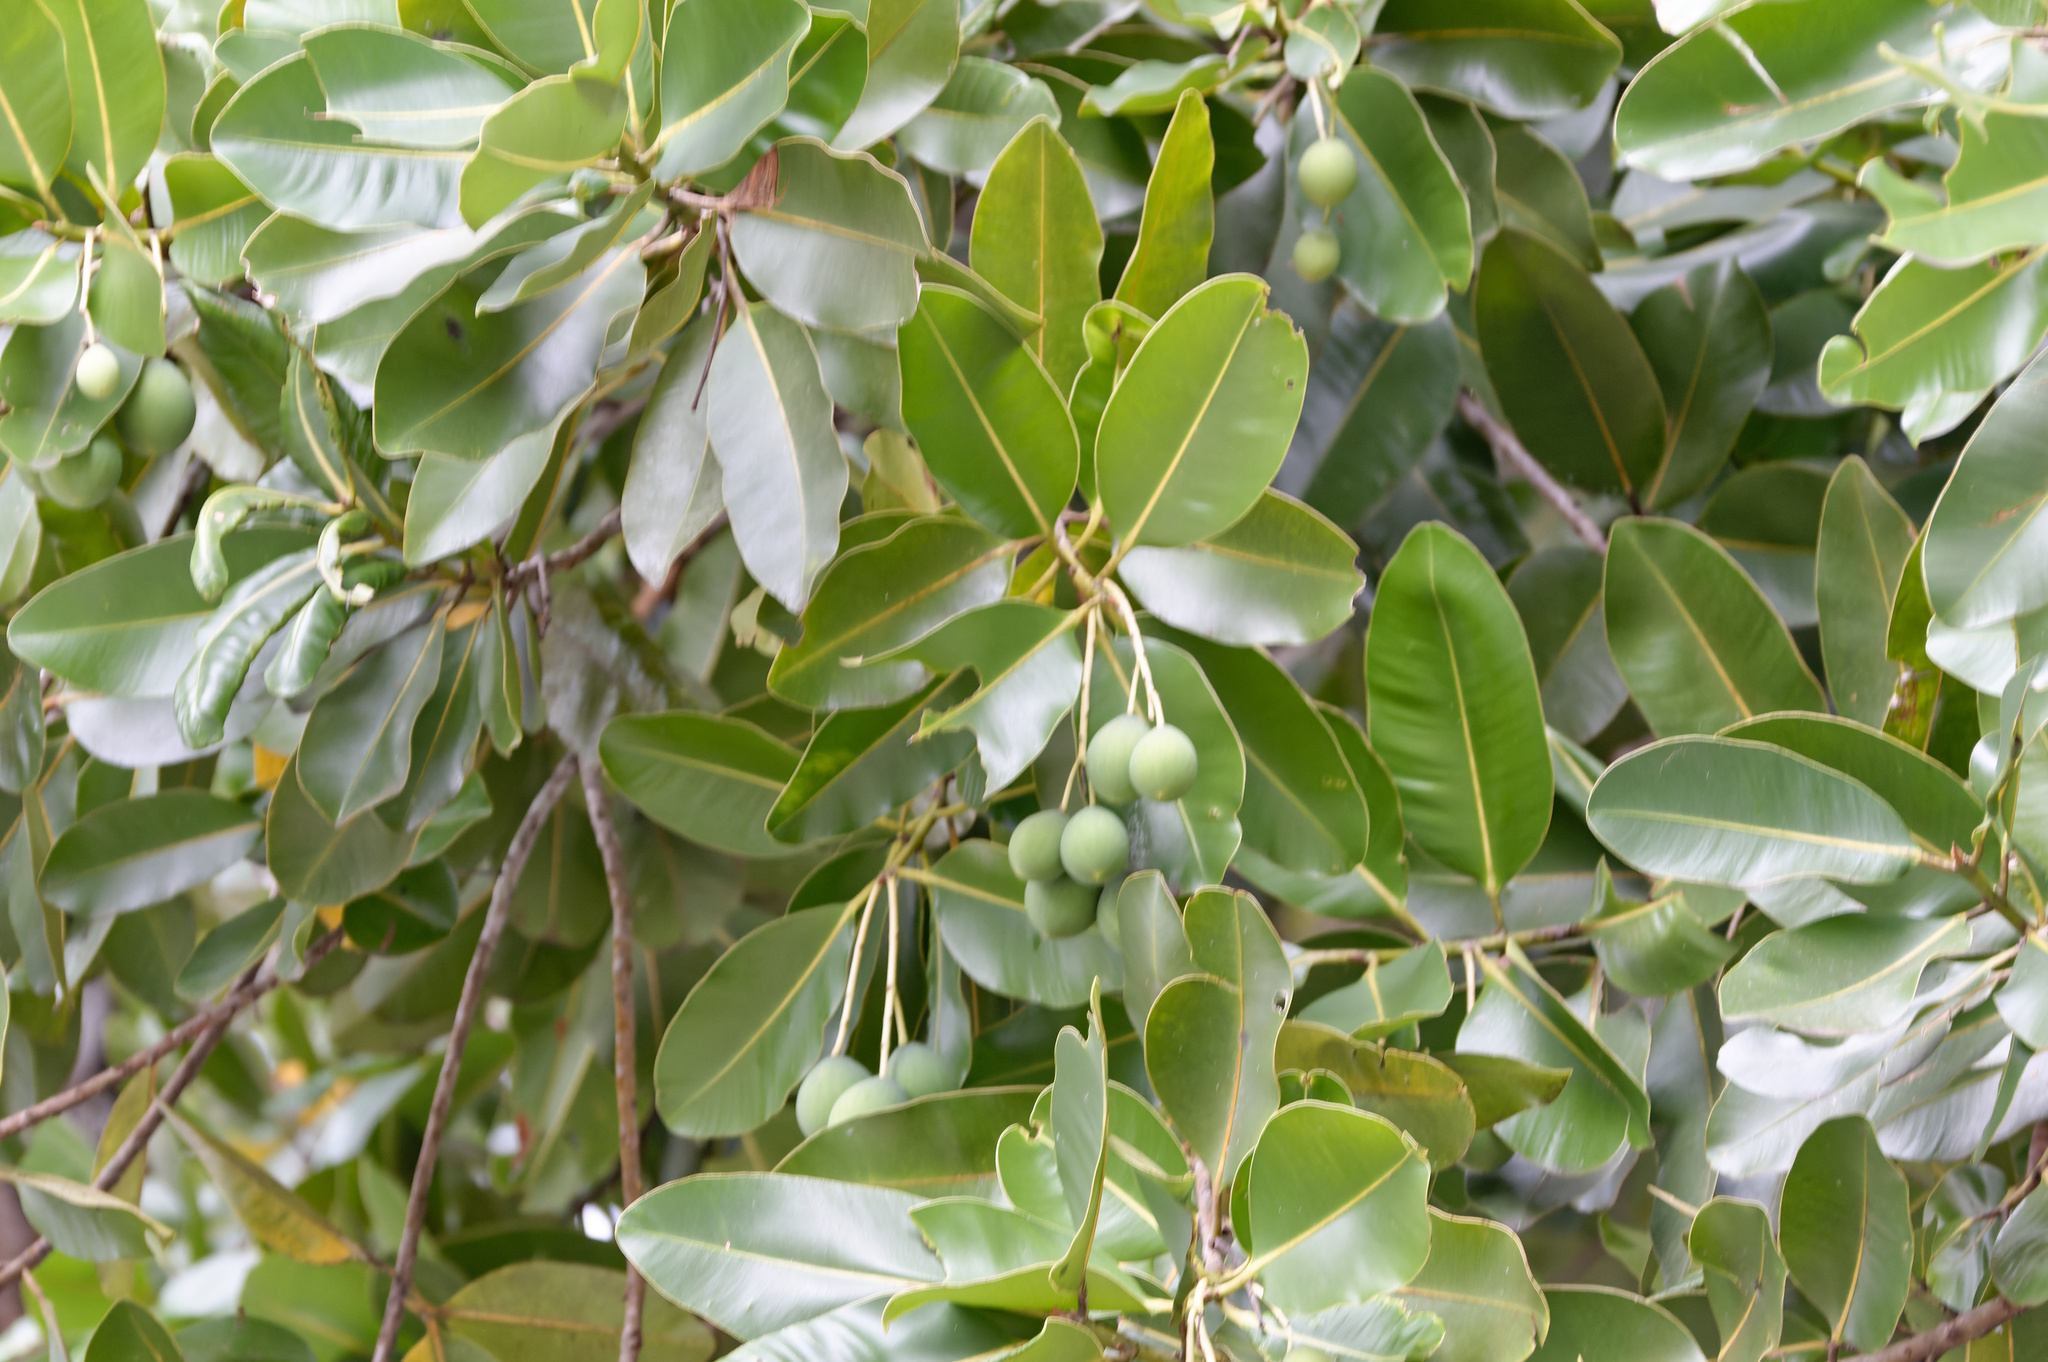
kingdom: Plantae
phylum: Tracheophyta
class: Magnoliopsida
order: Malpighiales
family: Calophyllaceae
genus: Calophyllum
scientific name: Calophyllum inophyllum
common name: Alexandrian laurel
